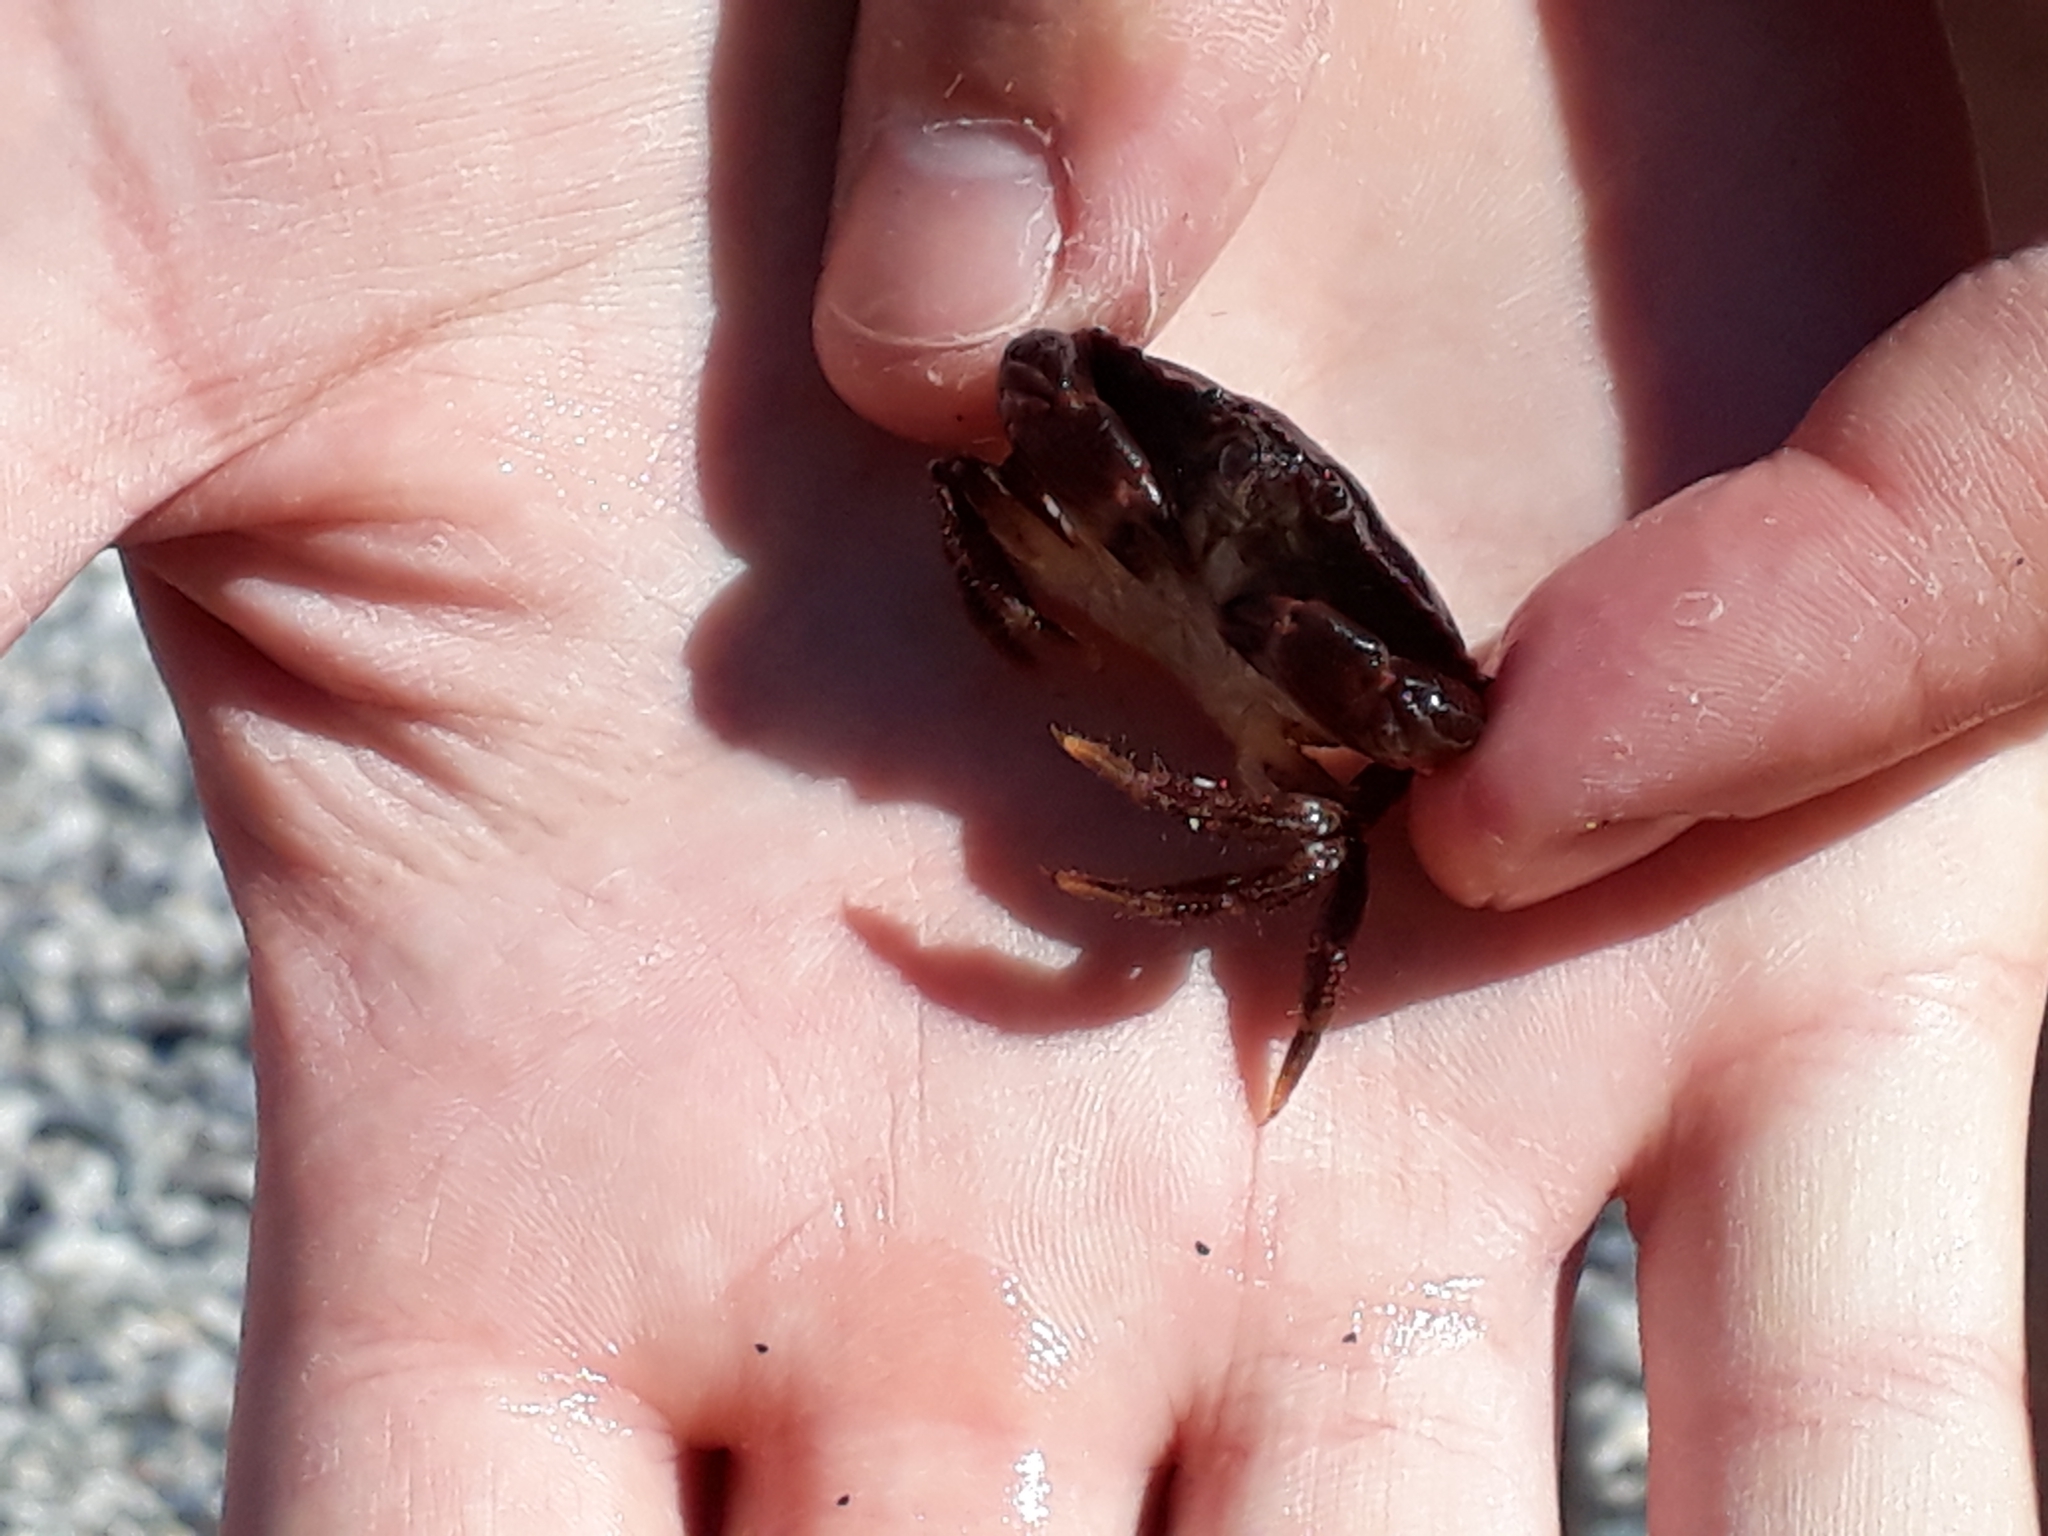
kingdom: Animalia
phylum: Arthropoda
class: Malacostraca
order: Decapoda
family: Cancridae
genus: Cancer
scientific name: Cancer pagurus
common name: Edible crab
